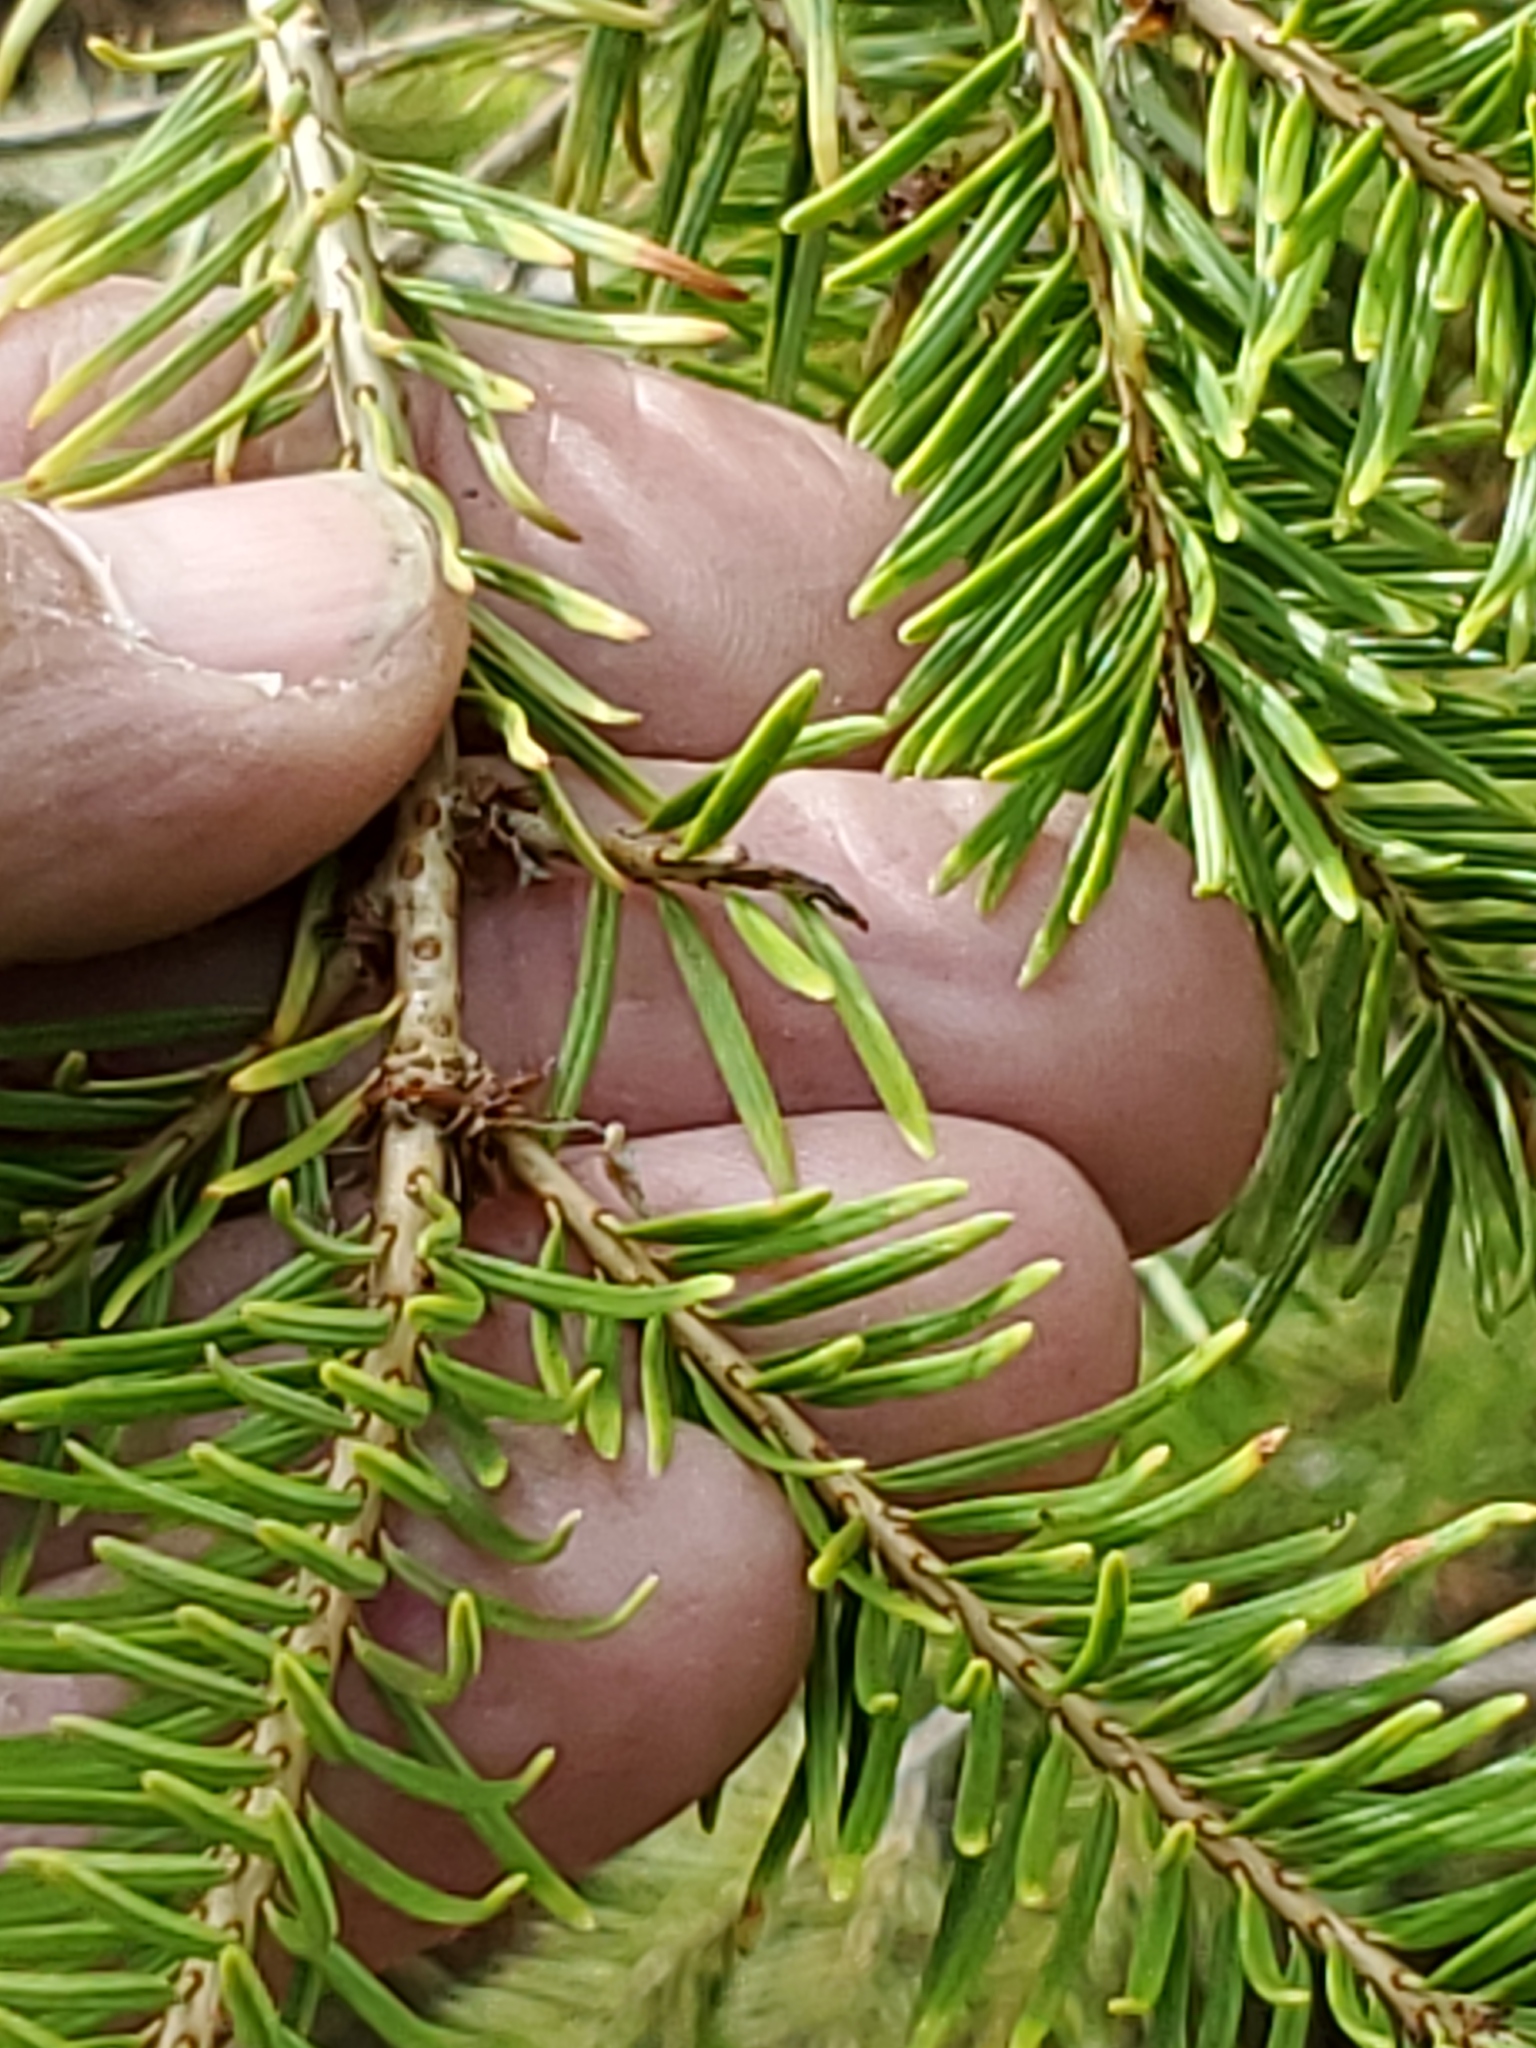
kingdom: Plantae
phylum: Tracheophyta
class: Pinopsida
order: Pinales
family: Pinaceae
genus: Pseudotsuga
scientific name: Pseudotsuga menziesii
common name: Douglas fir
